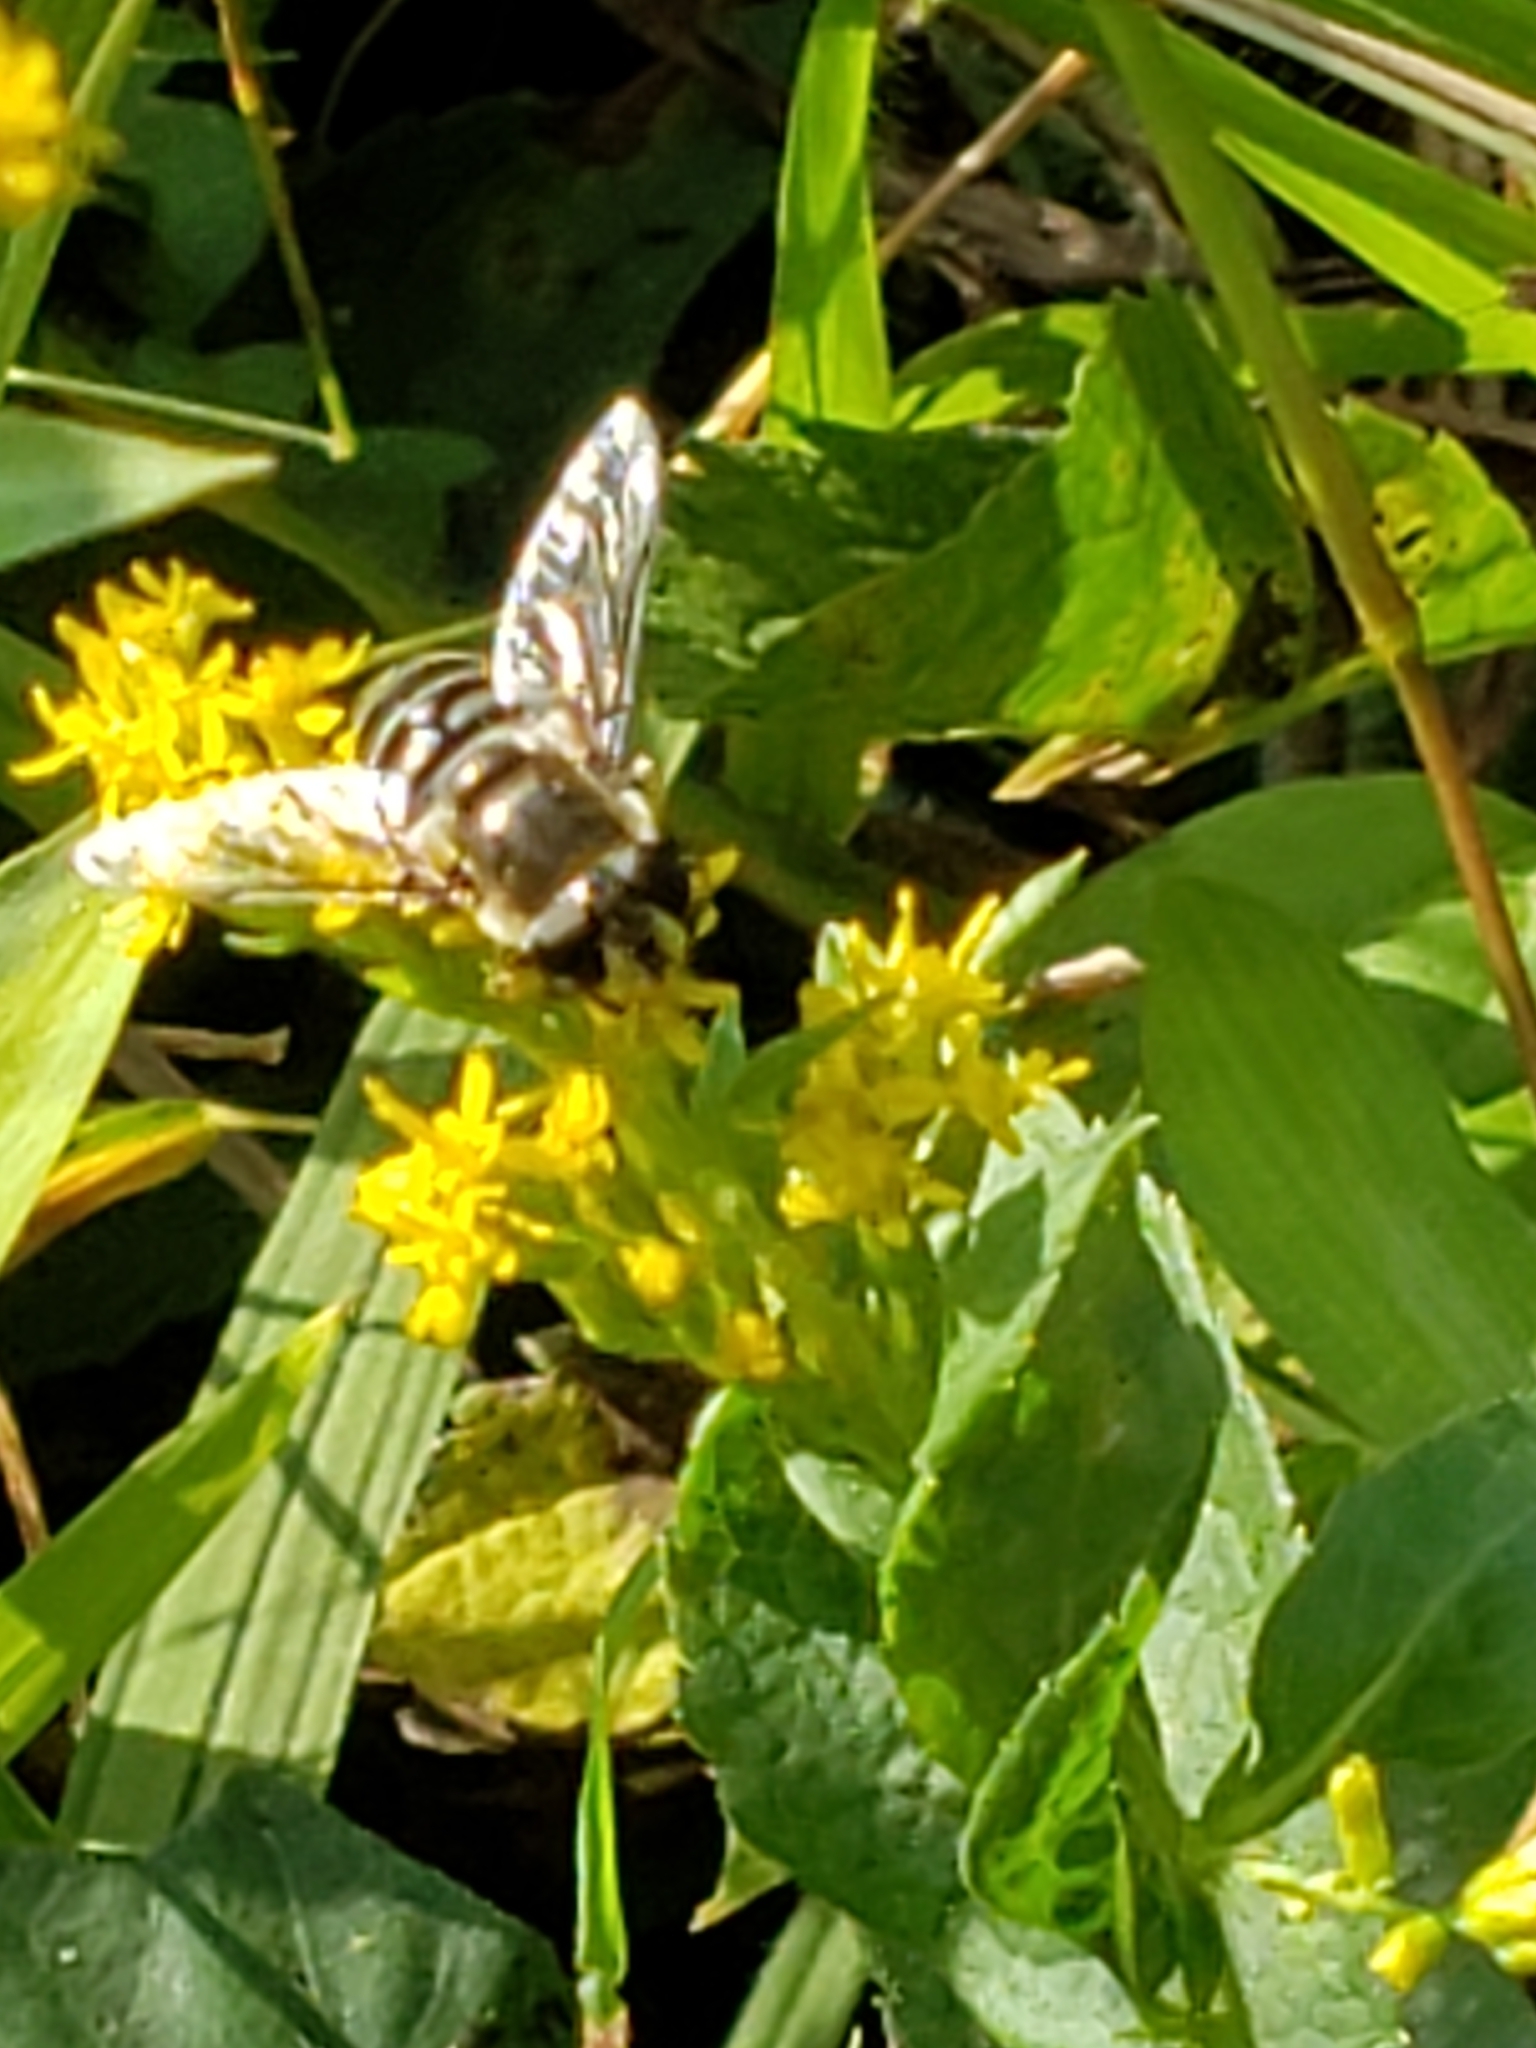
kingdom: Animalia
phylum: Arthropoda
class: Insecta
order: Diptera
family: Syrphidae
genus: Eristalis
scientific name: Eristalis dimidiata
